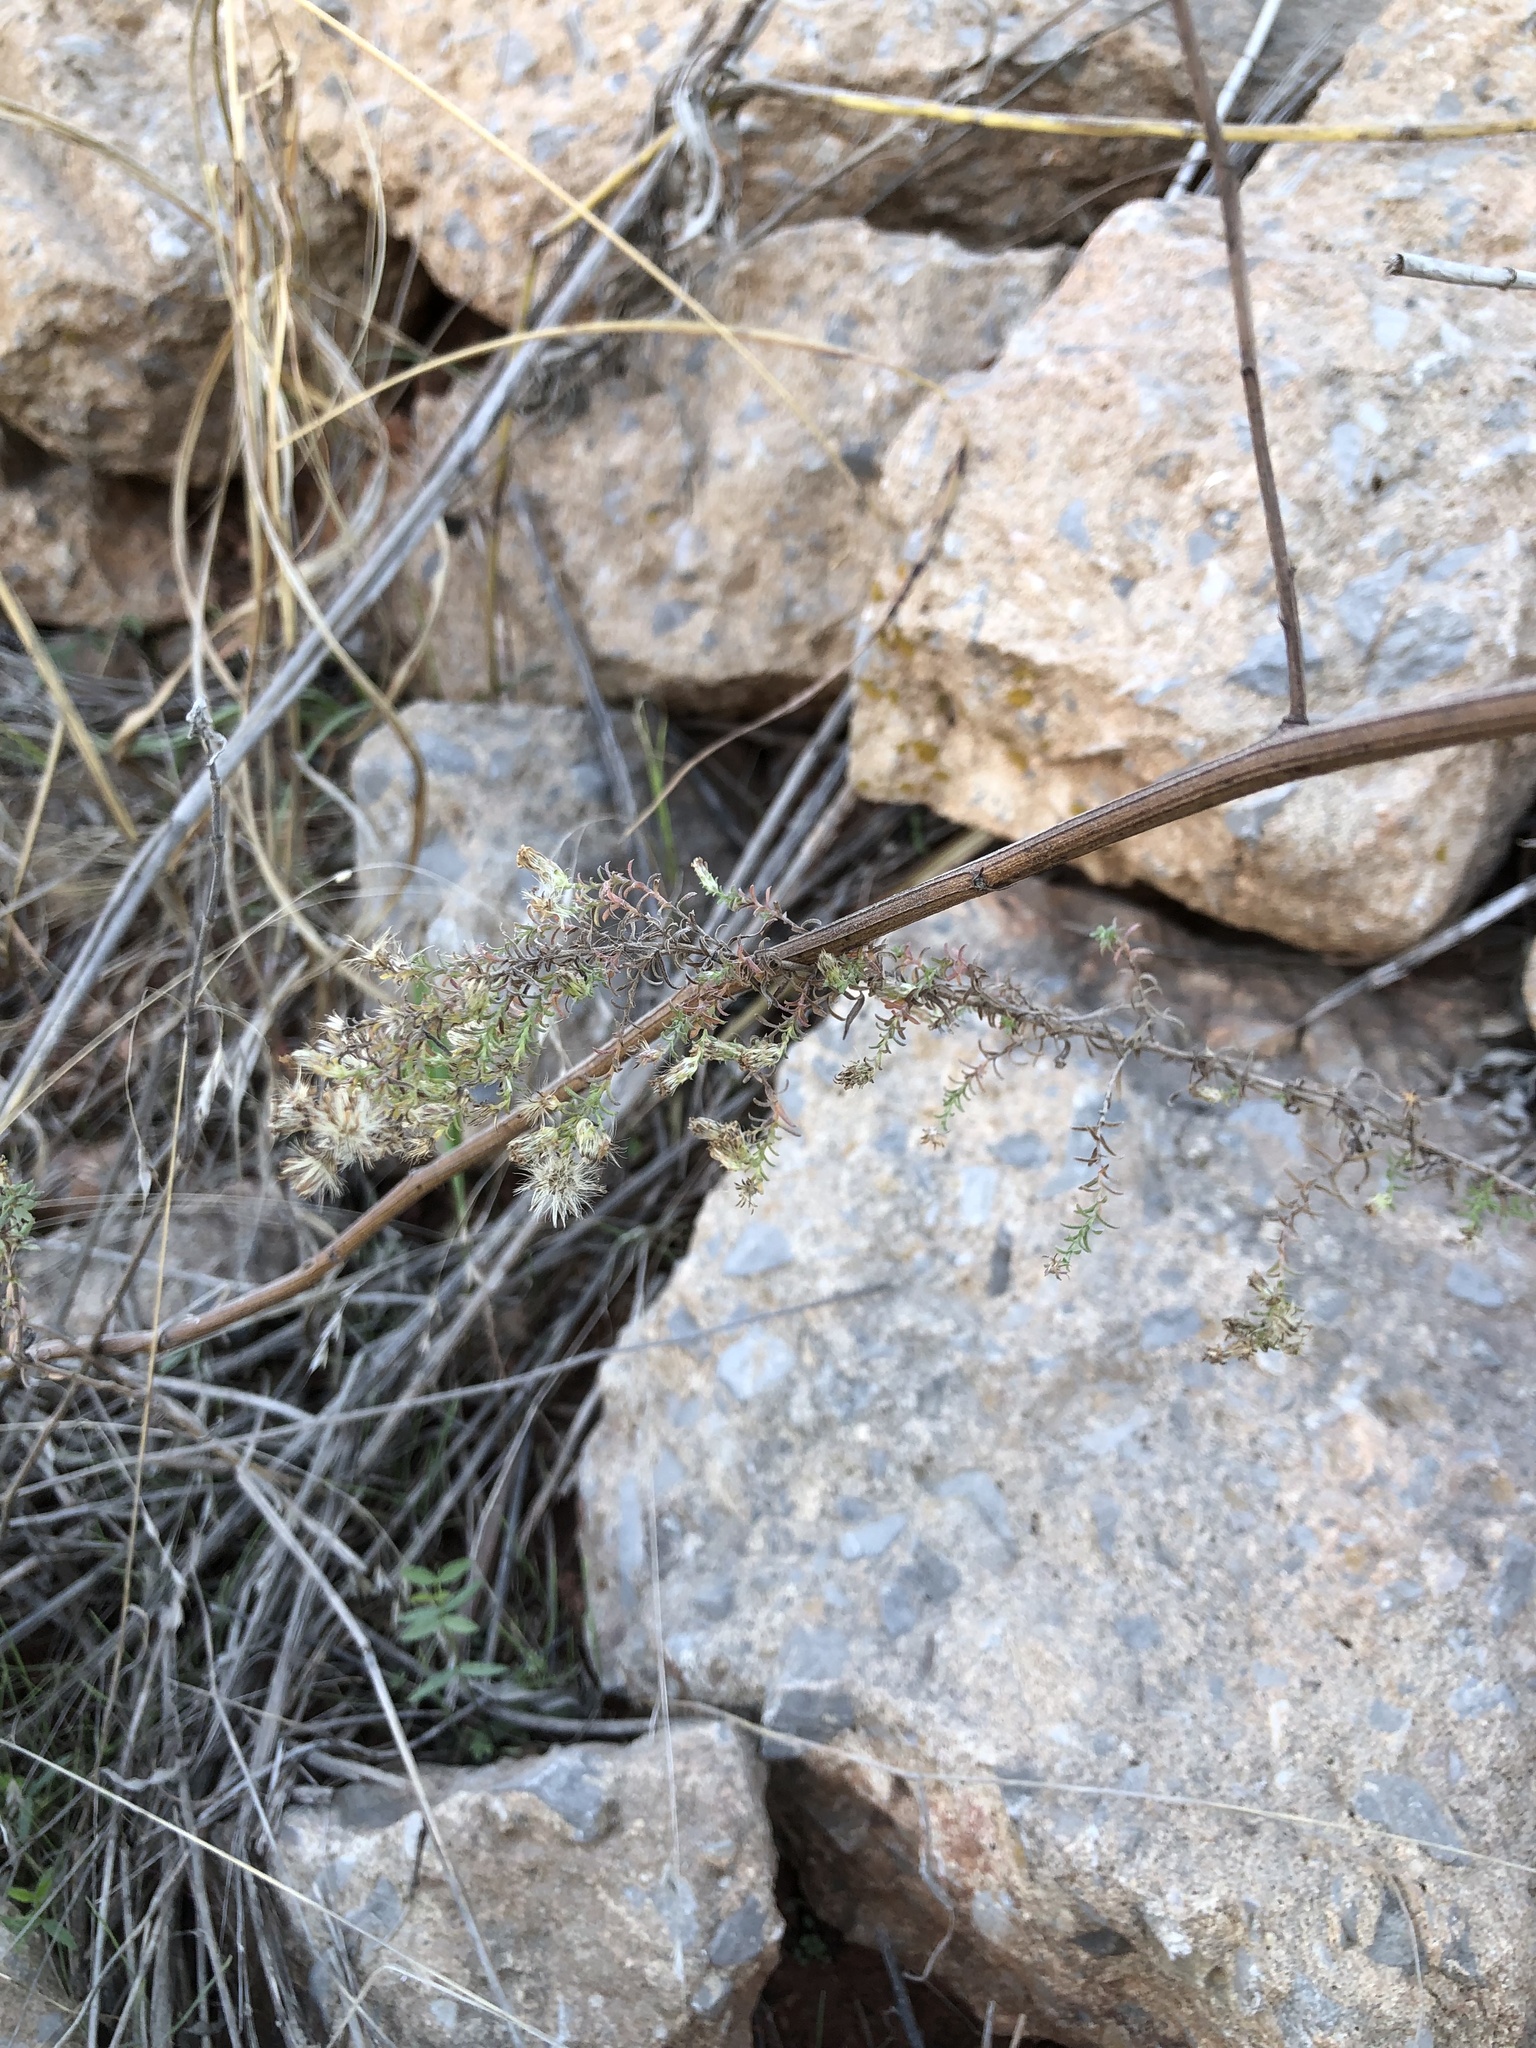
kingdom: Plantae
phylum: Tracheophyta
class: Magnoliopsida
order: Asterales
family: Asteraceae
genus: Symphyotrichum
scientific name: Symphyotrichum ericoides
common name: Heath aster
